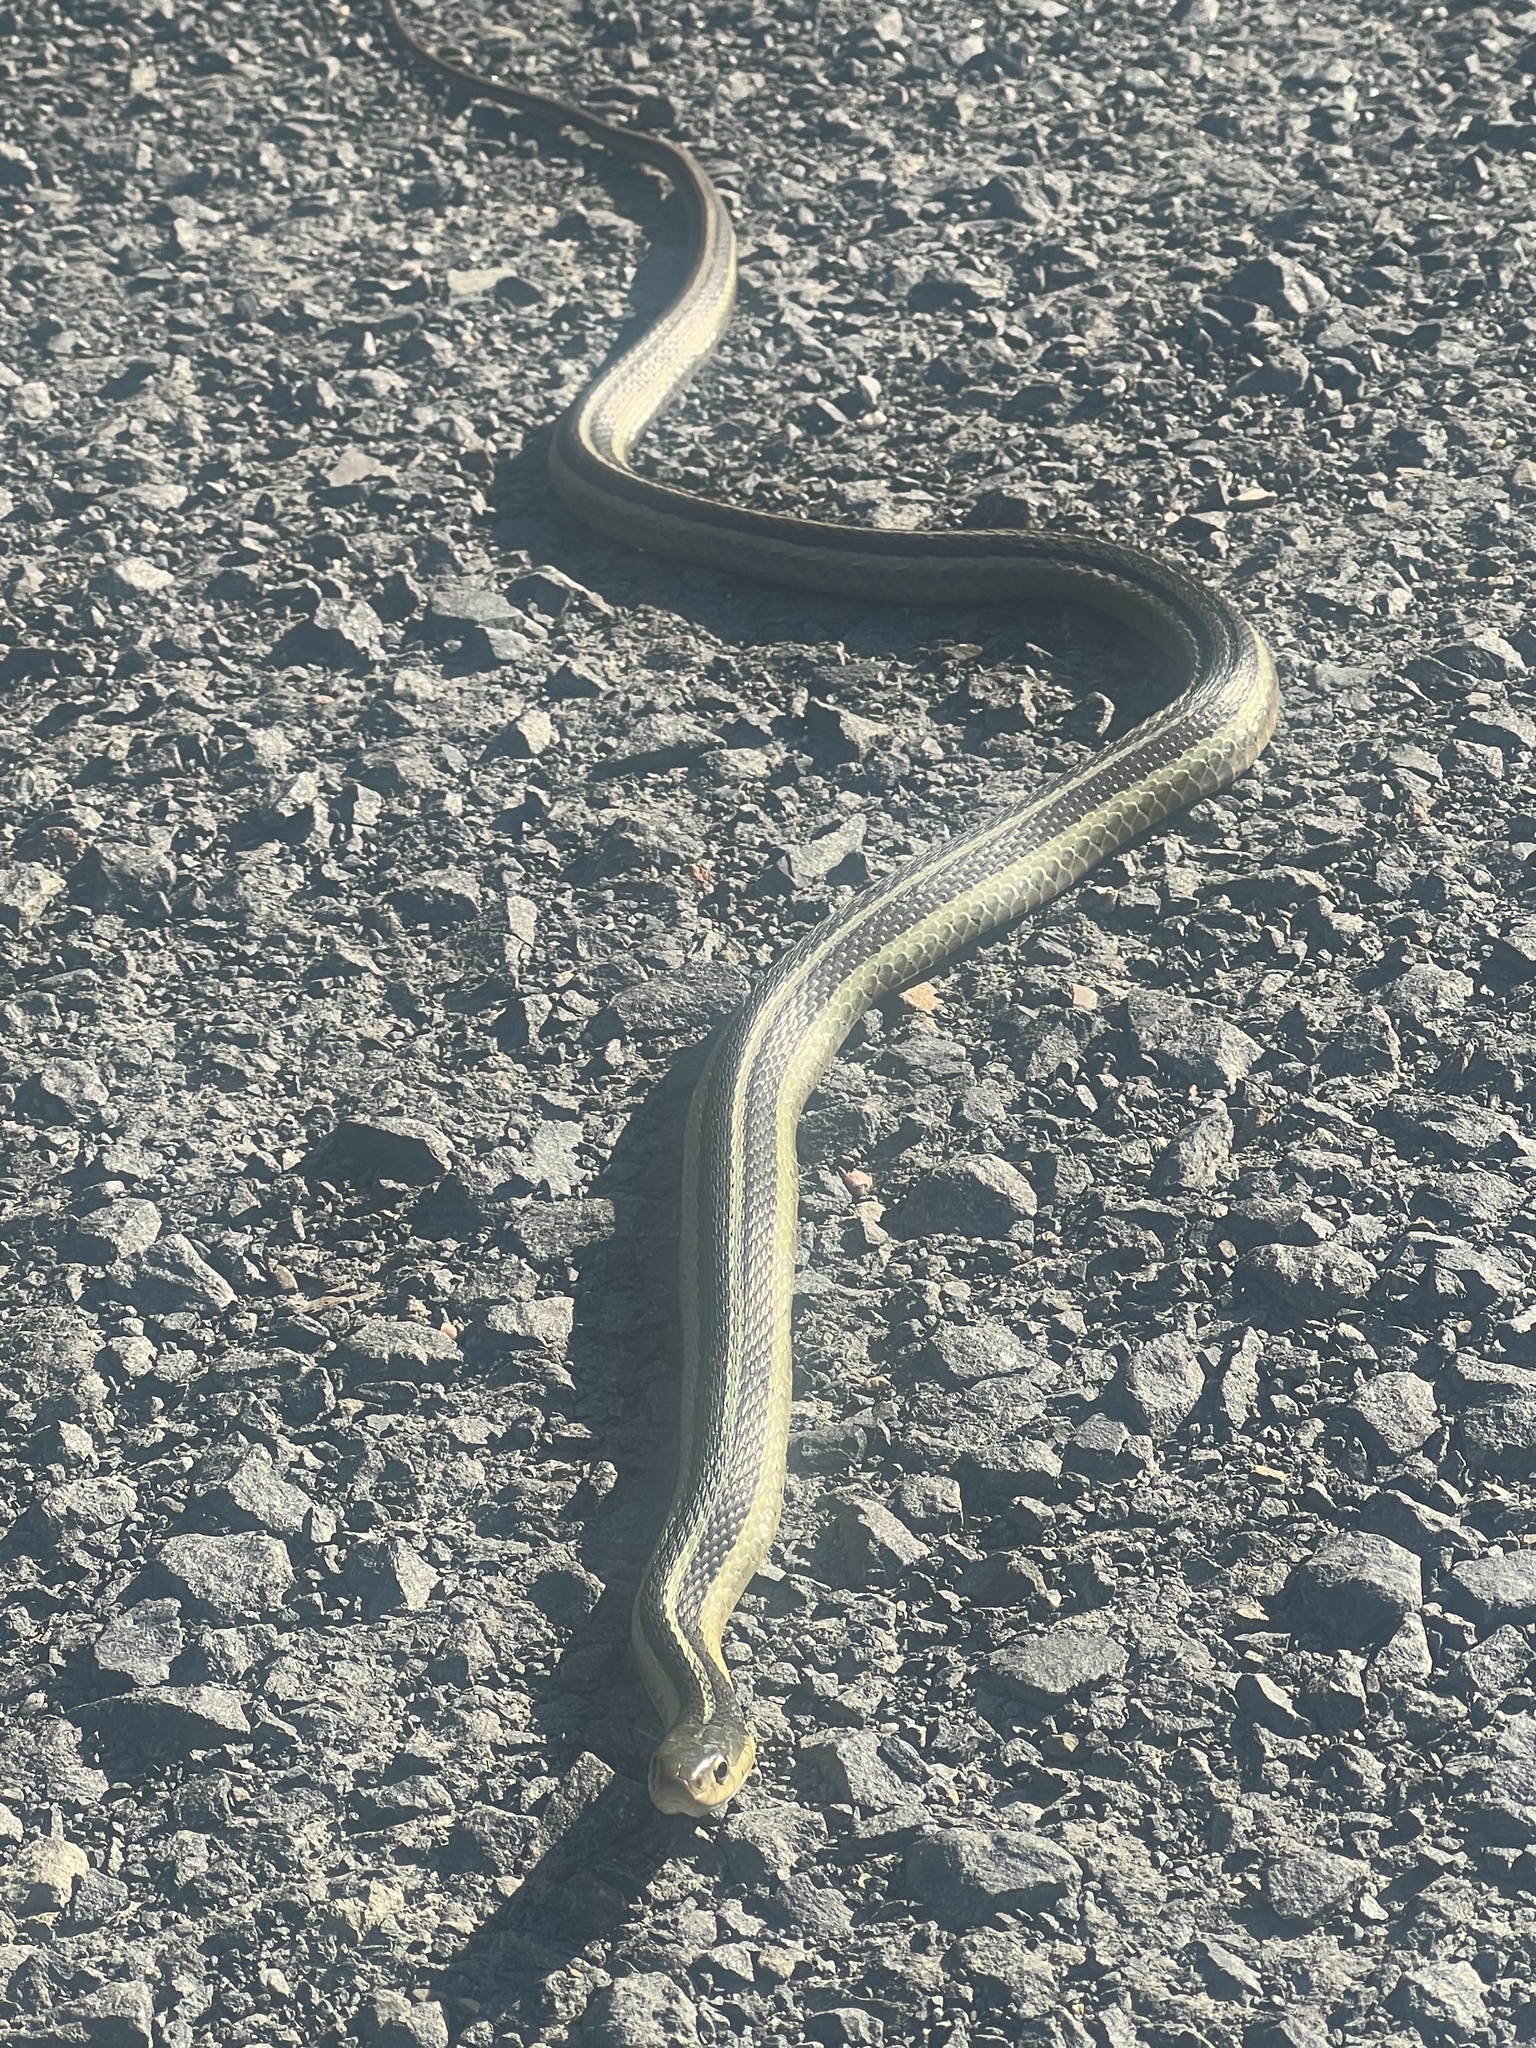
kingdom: Animalia
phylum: Chordata
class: Squamata
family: Colubridae
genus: Thamnophis
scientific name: Thamnophis sirtalis
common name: Common garter snake
